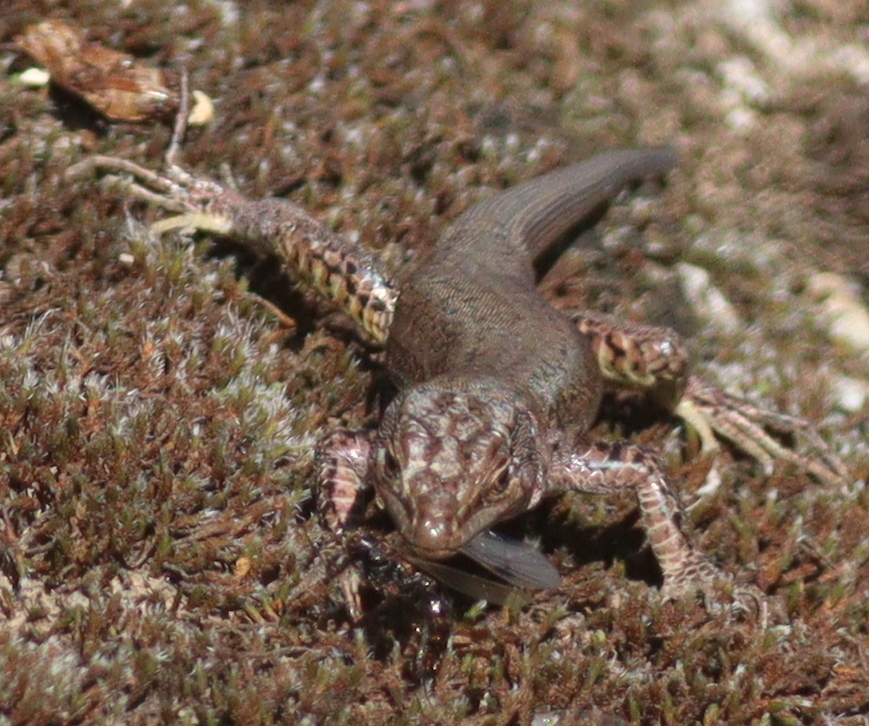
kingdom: Animalia
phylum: Chordata
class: Squamata
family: Lacertidae
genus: Podarcis
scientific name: Podarcis virescens
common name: Geniez’s wall lizard
